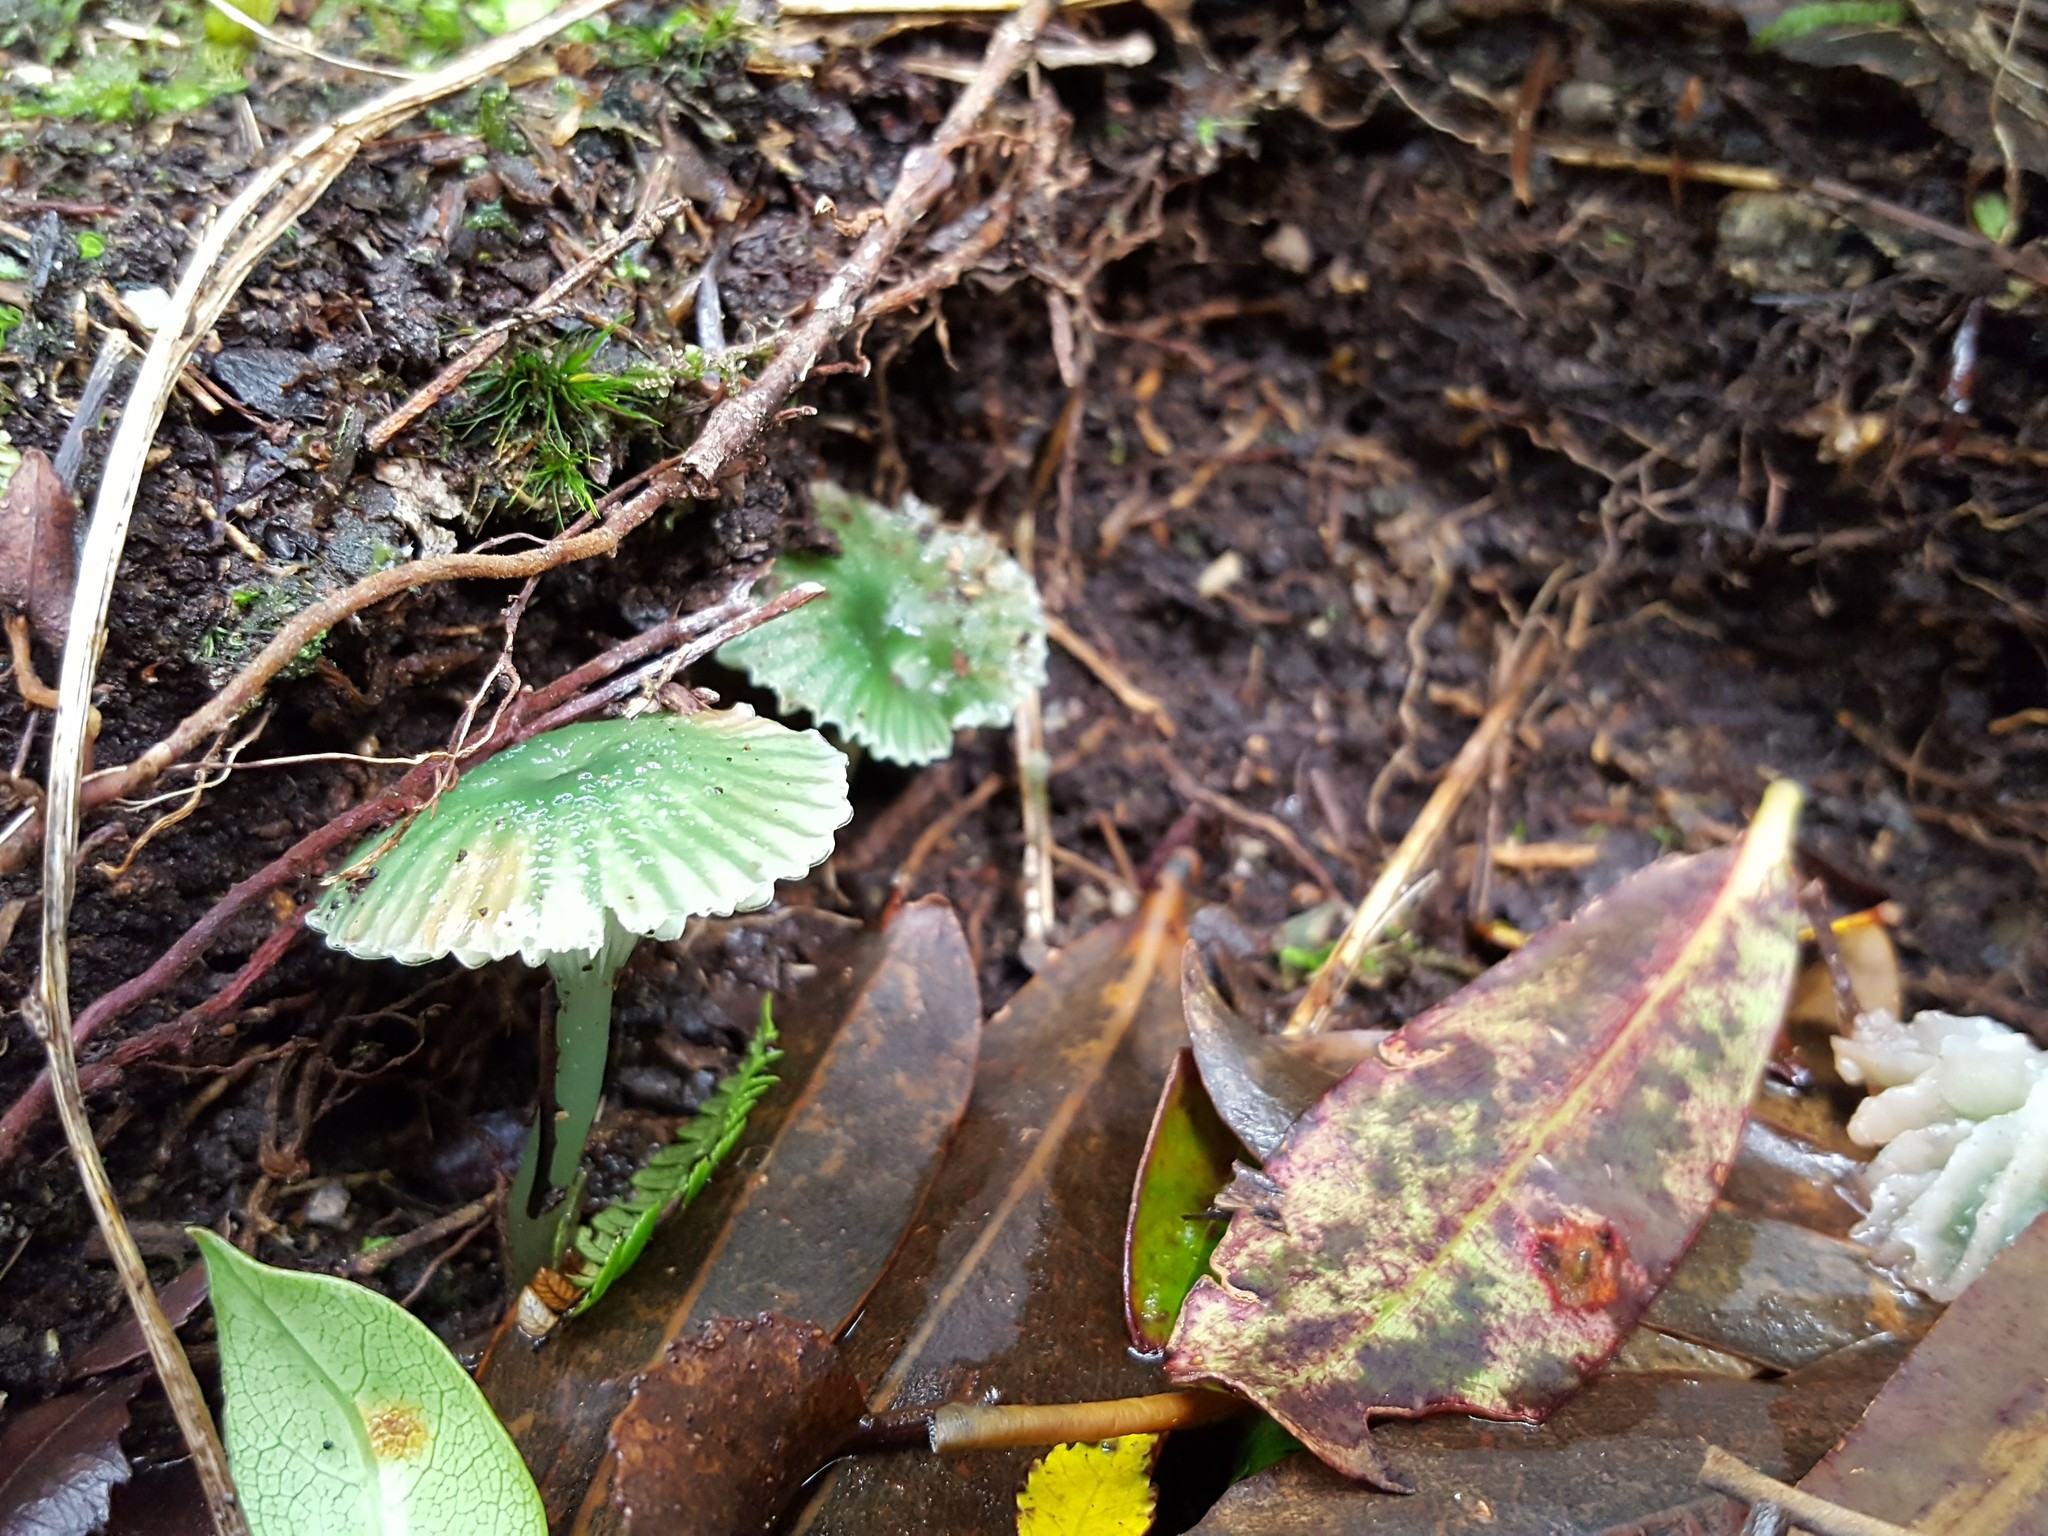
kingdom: Fungi
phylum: Basidiomycota
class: Agaricomycetes
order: Agaricales
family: Hygrophoraceae
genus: Gliophorus
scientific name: Gliophorus graminicolor
